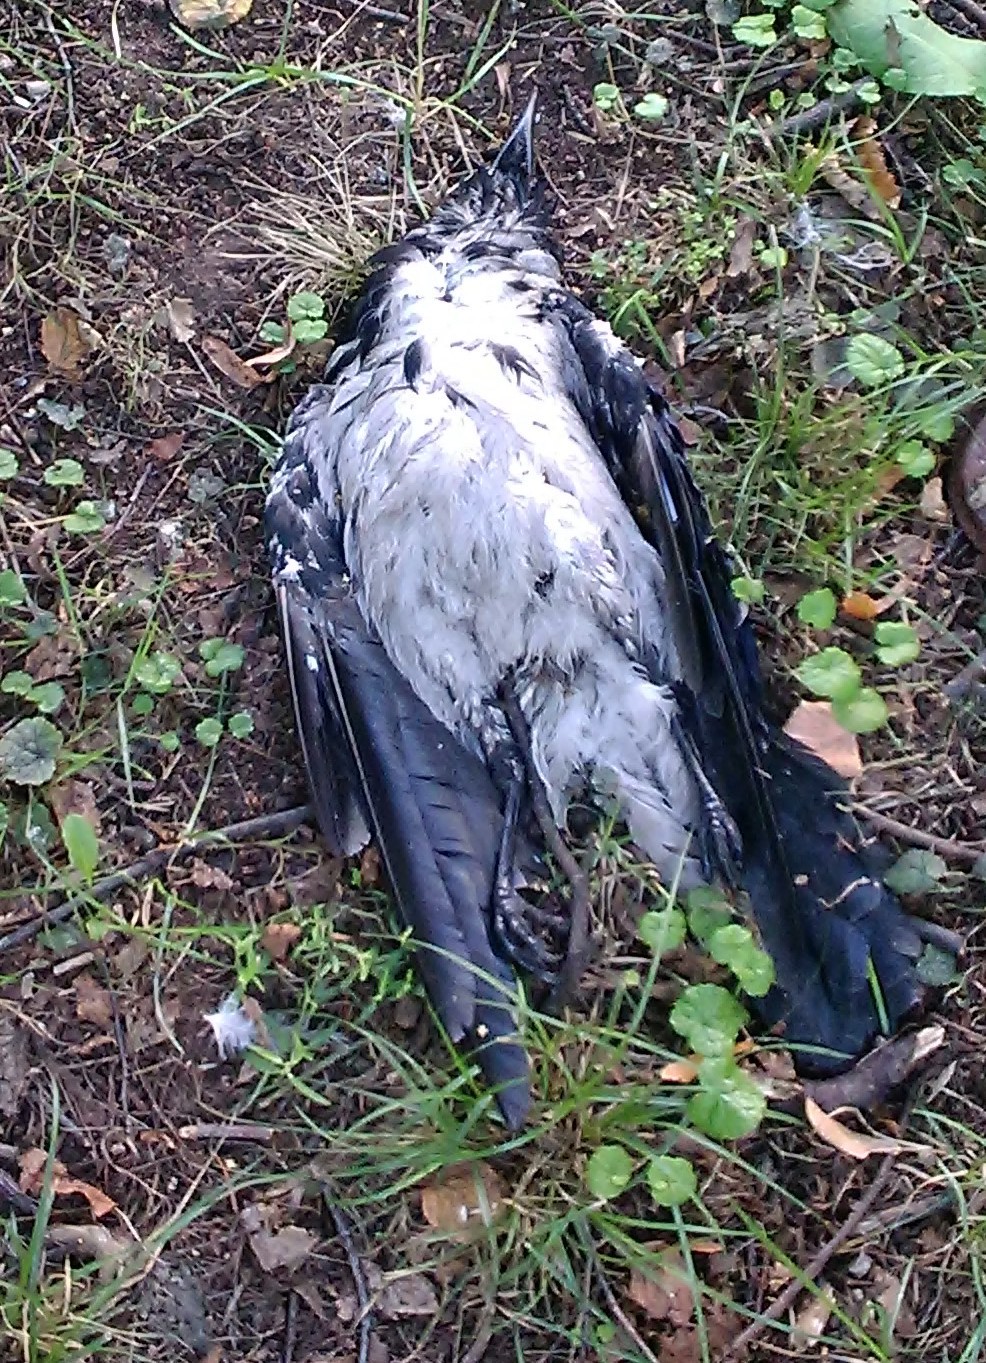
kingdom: Animalia
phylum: Chordata
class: Aves
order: Passeriformes
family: Corvidae
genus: Corvus
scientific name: Corvus cornix
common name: Hooded crow
